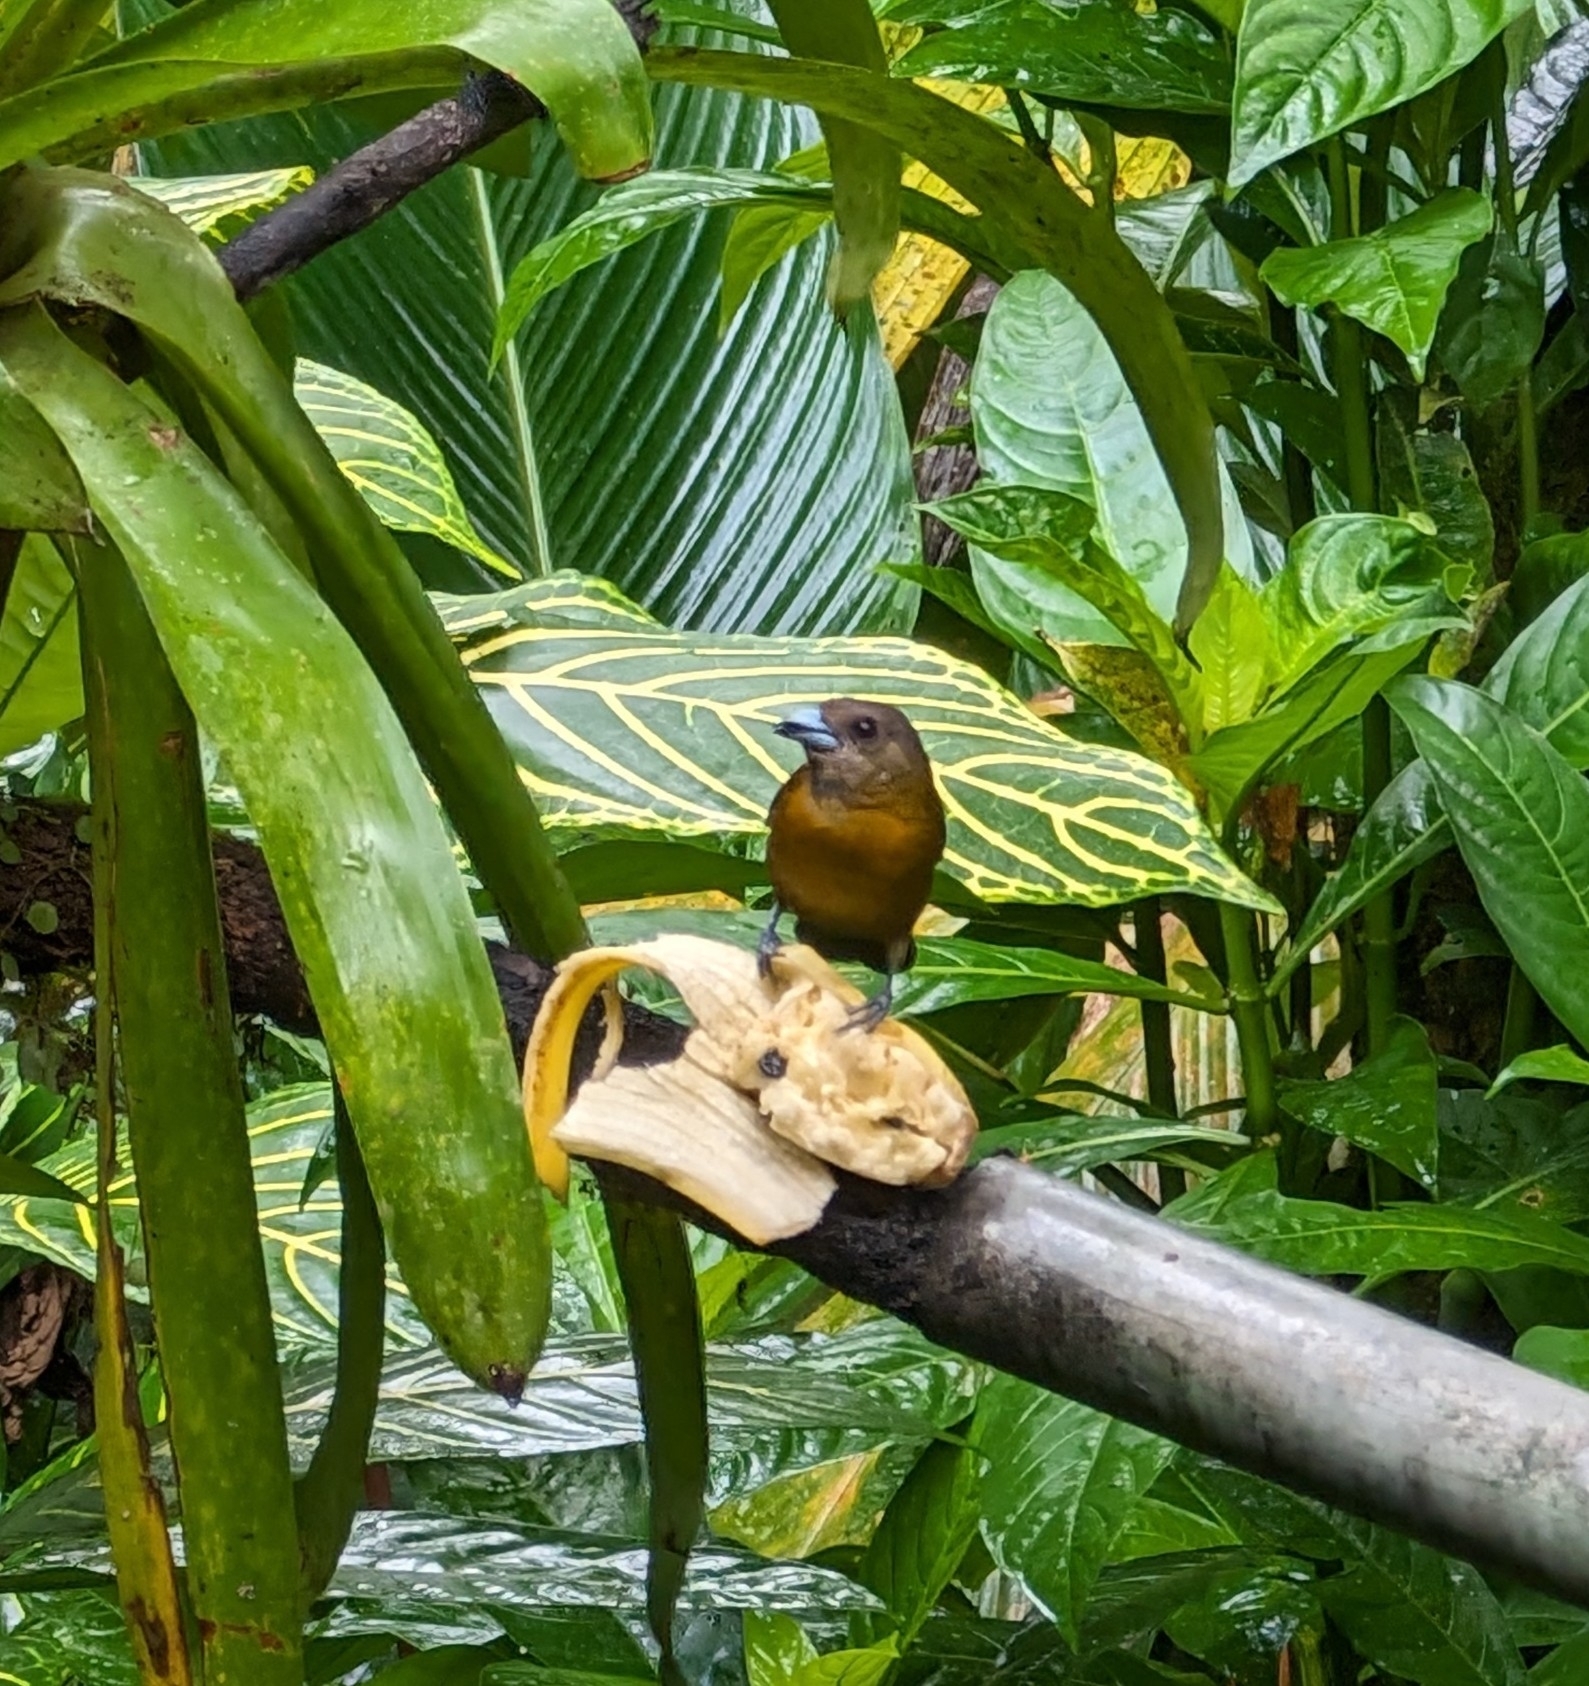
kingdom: Animalia
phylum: Chordata
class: Aves
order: Passeriformes
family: Thraupidae
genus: Ramphocelus
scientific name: Ramphocelus passerinii
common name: Passerini's tanager
